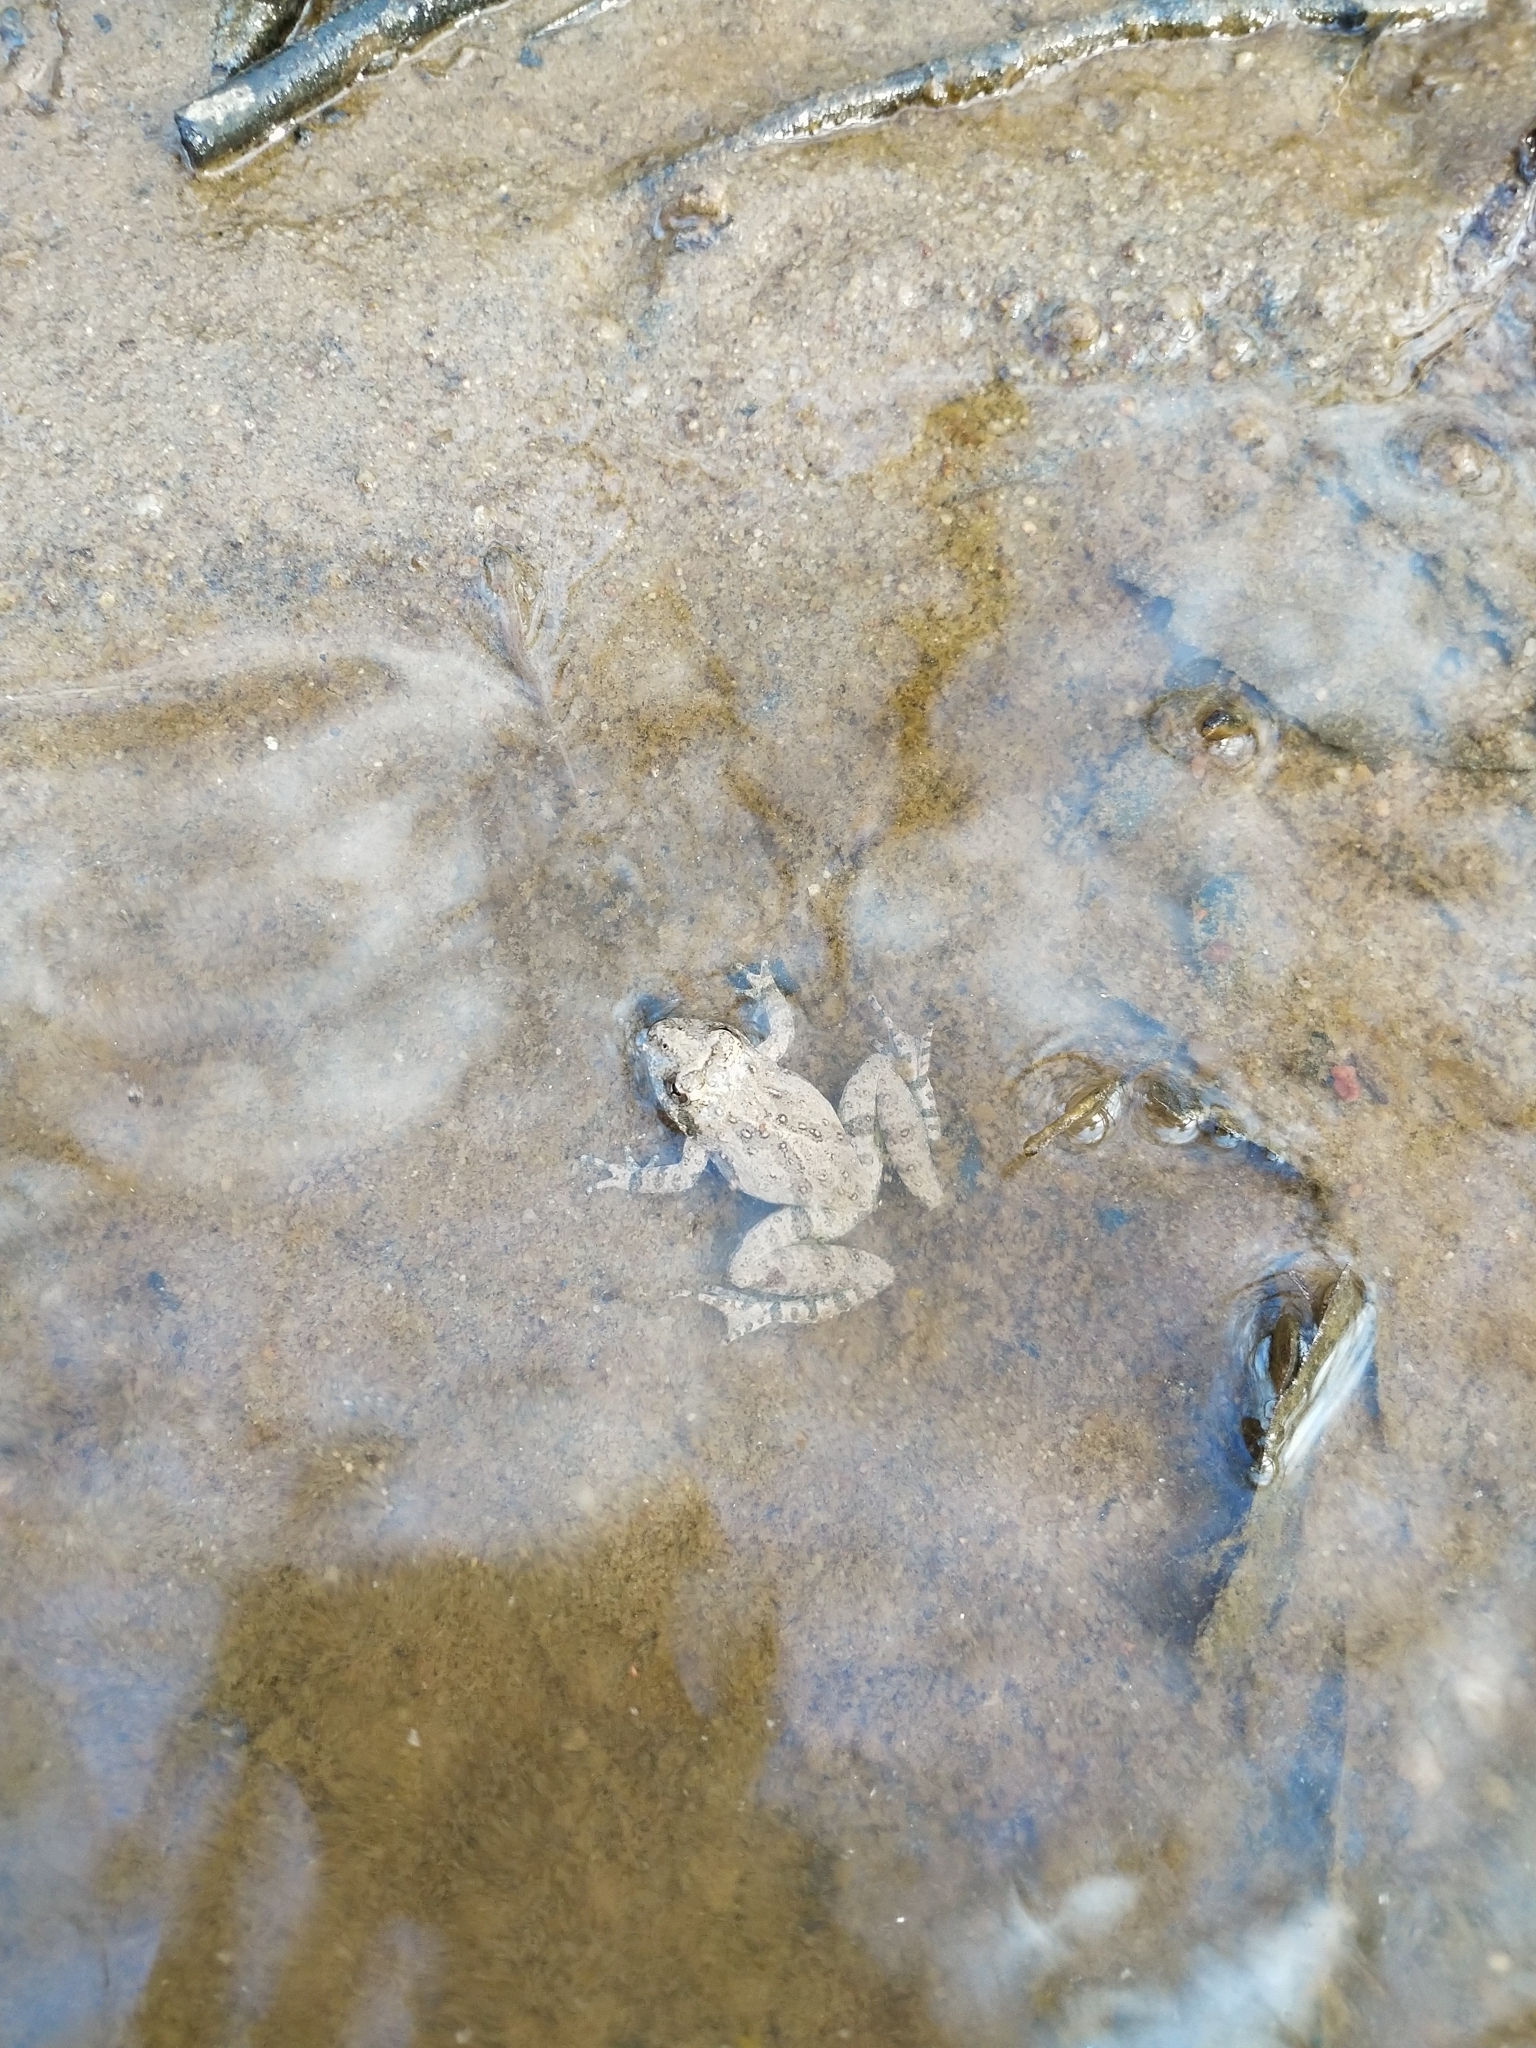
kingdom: Animalia
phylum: Chordata
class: Amphibia
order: Anura
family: Hylidae
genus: Acris
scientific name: Acris crepitans
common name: Northern cricket frog
